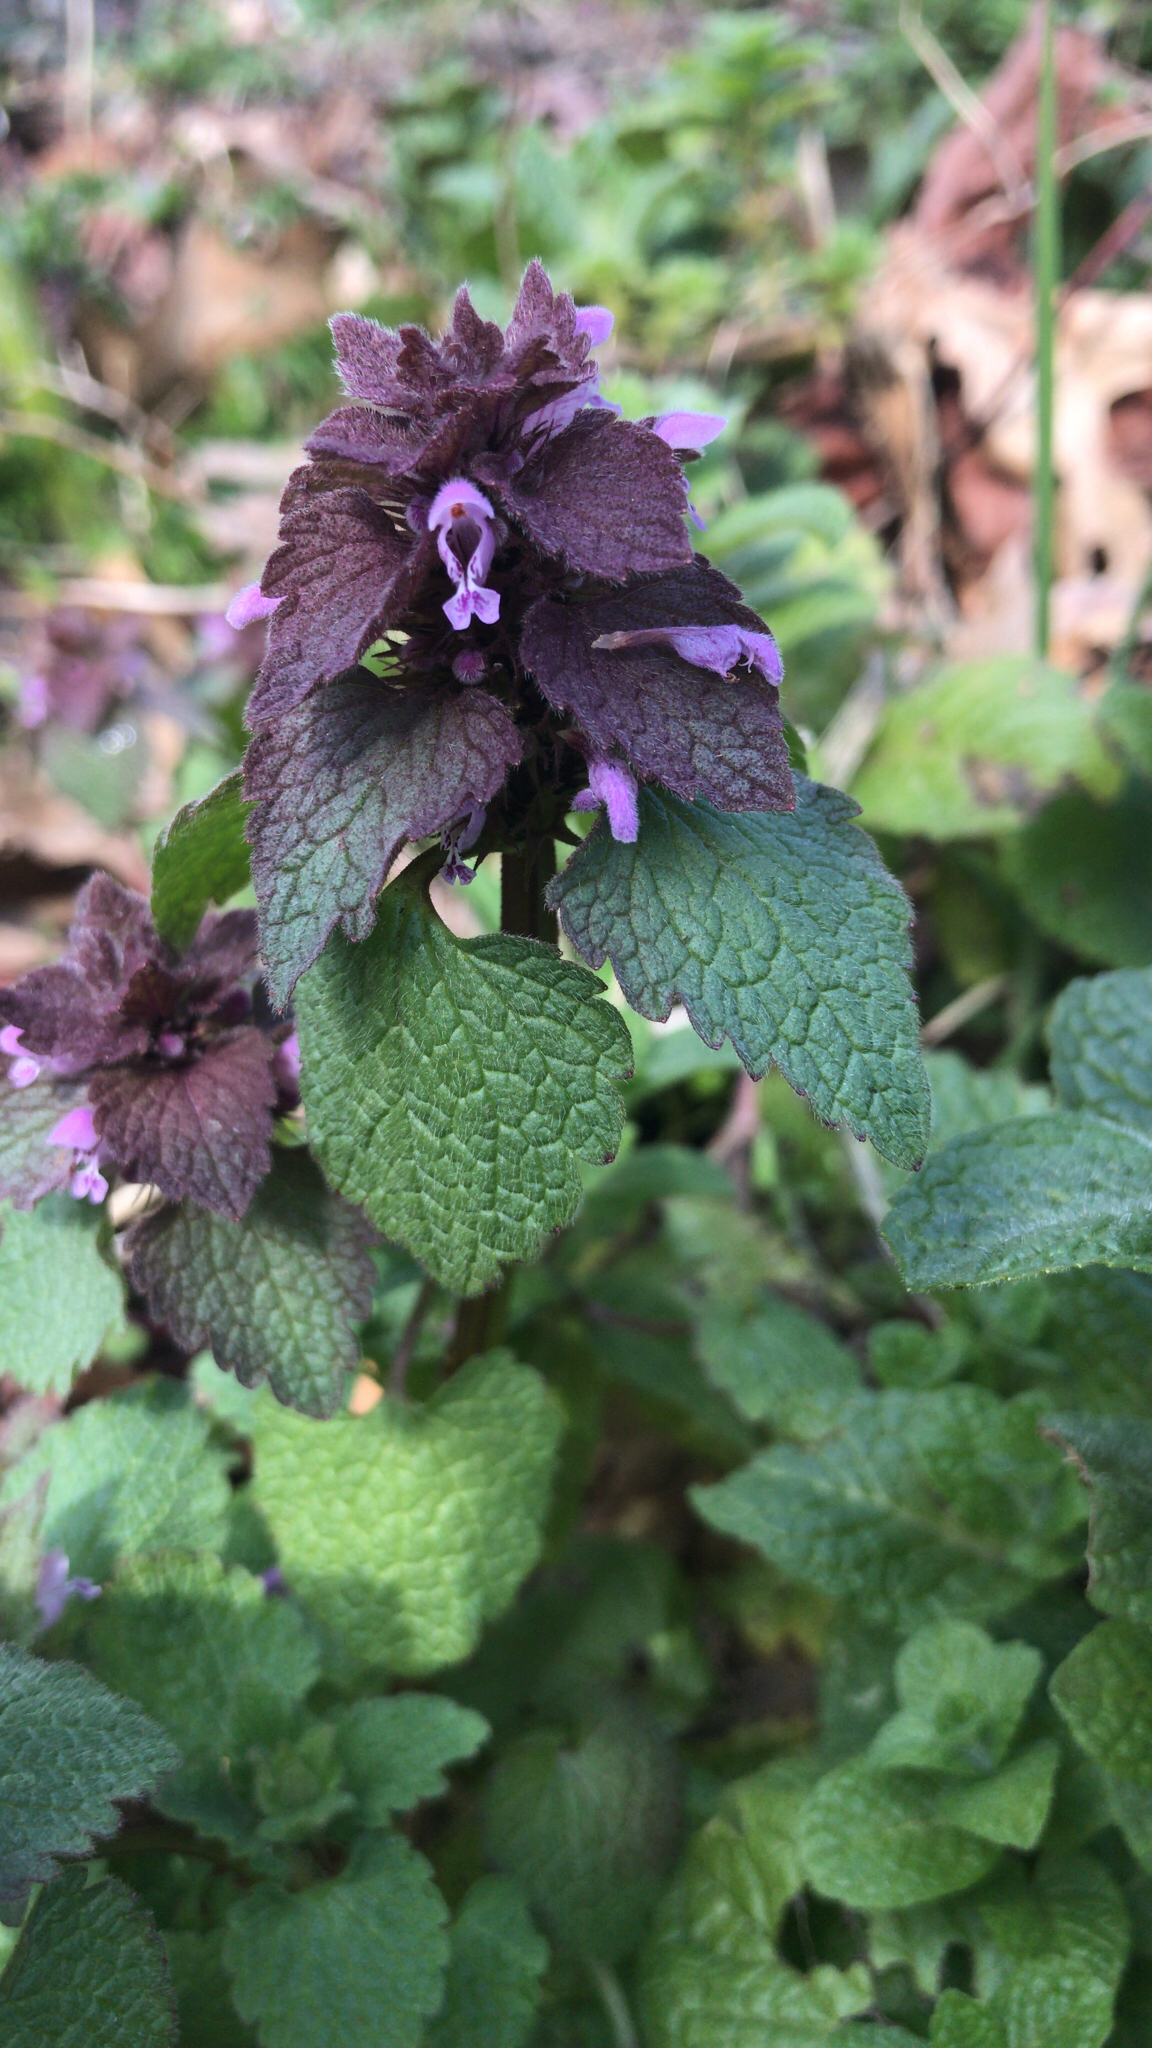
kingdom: Plantae
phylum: Tracheophyta
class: Magnoliopsida
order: Lamiales
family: Lamiaceae
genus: Lamium
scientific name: Lamium purpureum
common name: Red dead-nettle
